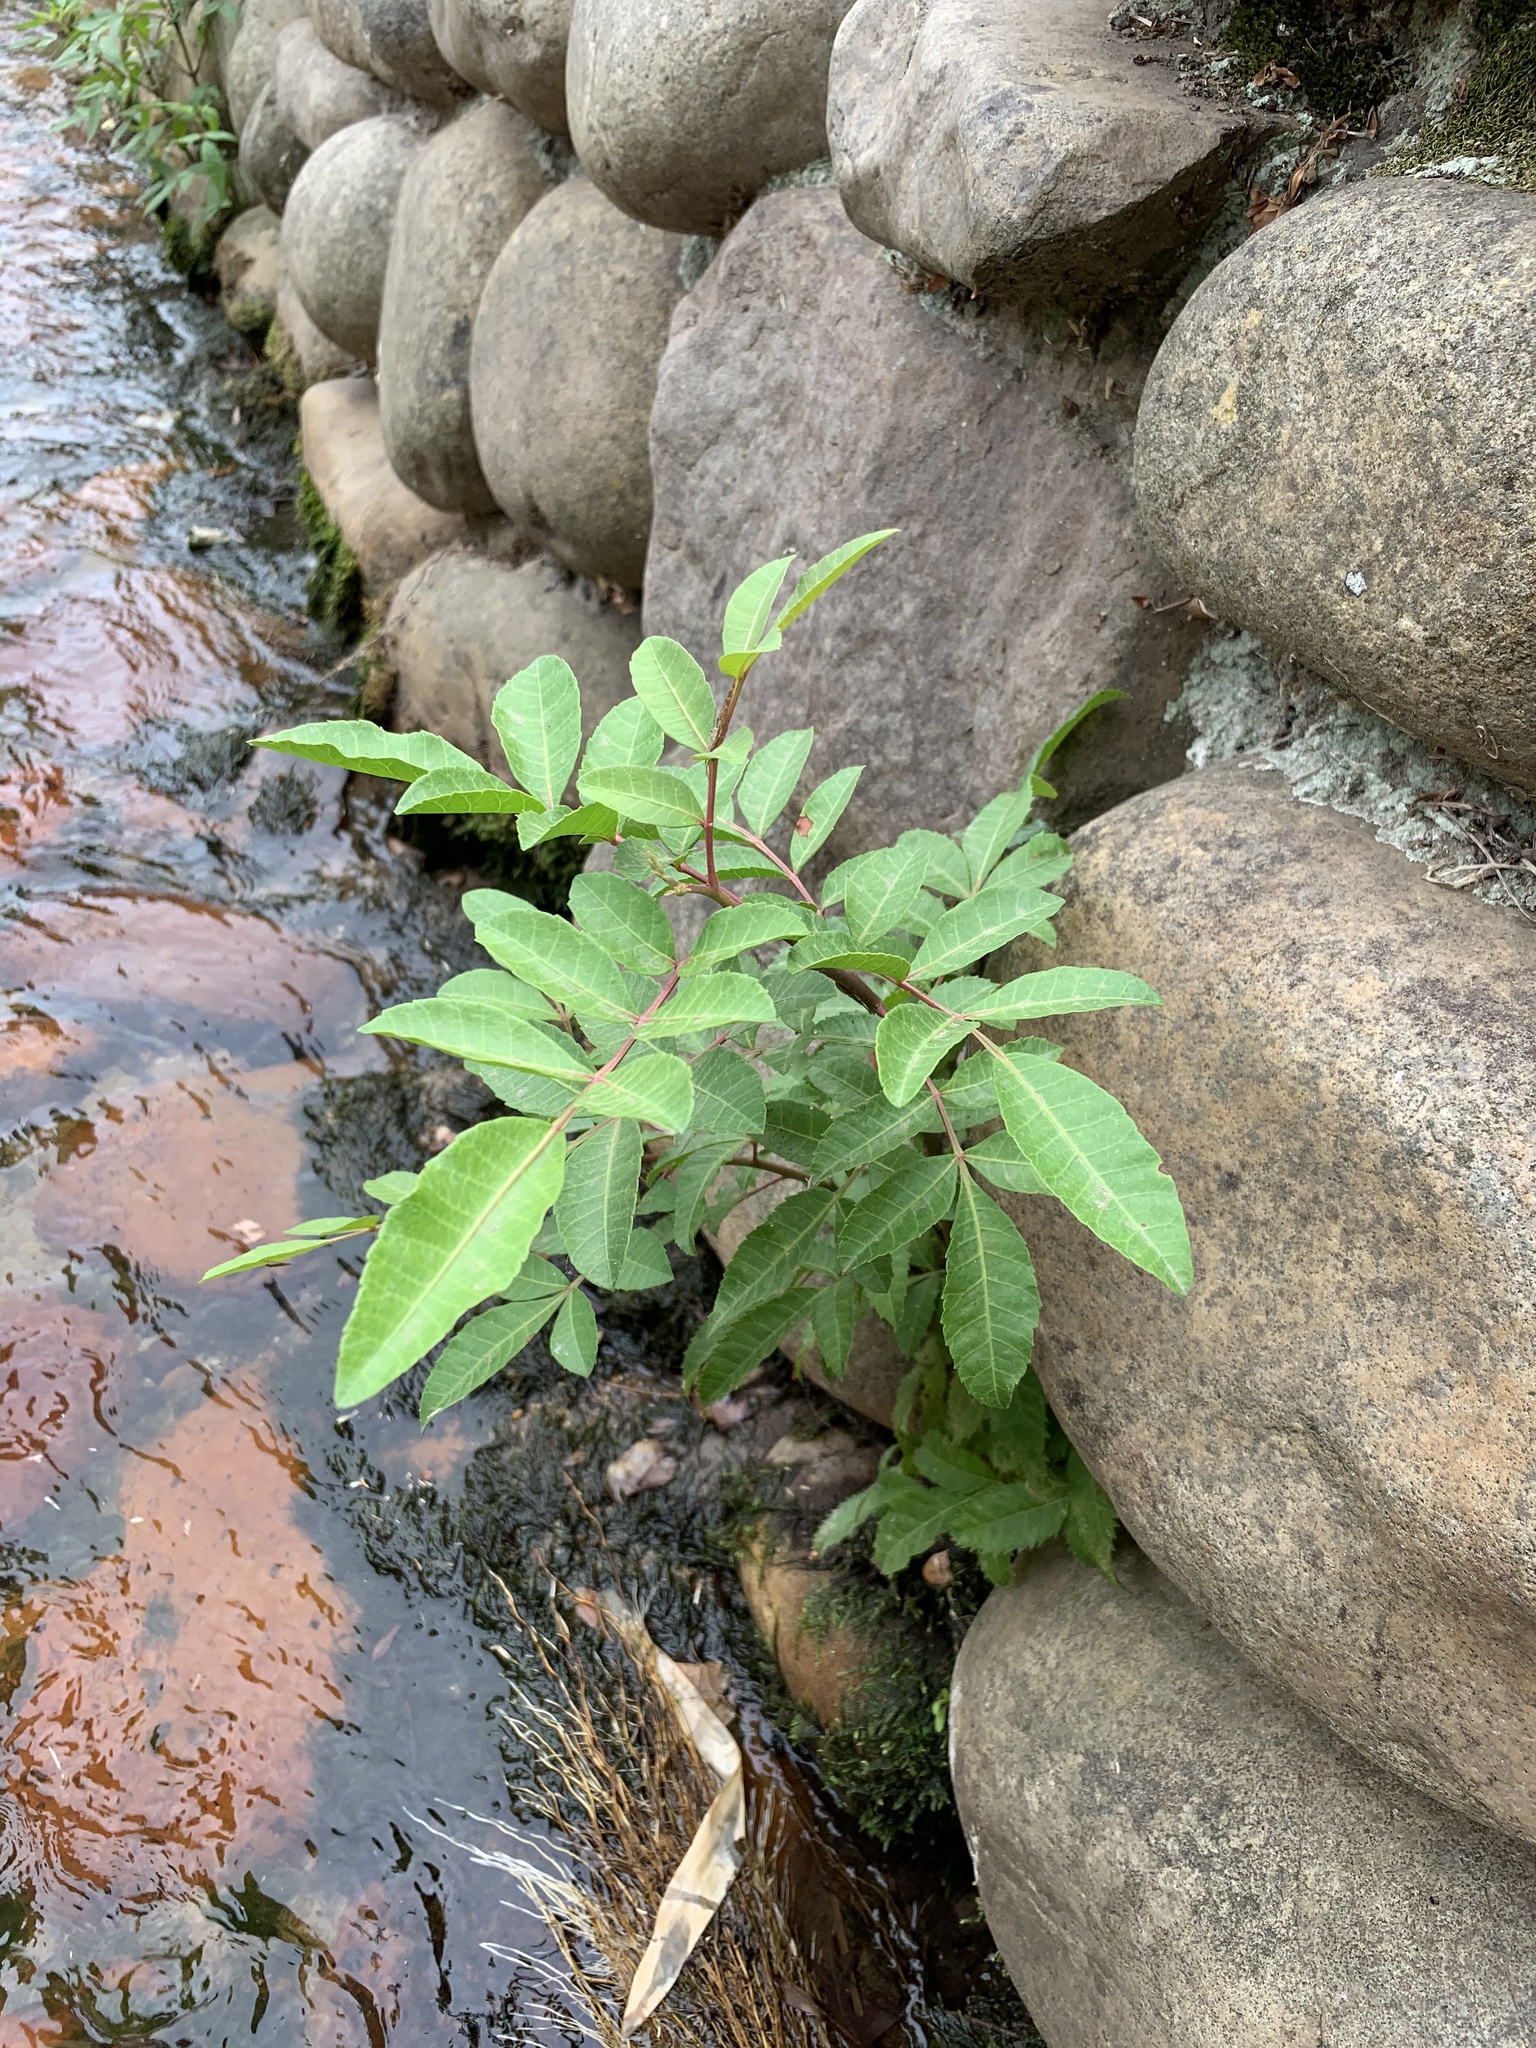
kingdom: Plantae
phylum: Tracheophyta
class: Magnoliopsida
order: Sapindales
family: Anacardiaceae
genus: Schinus
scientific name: Schinus terebinthifolia
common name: Brazilian peppertree
